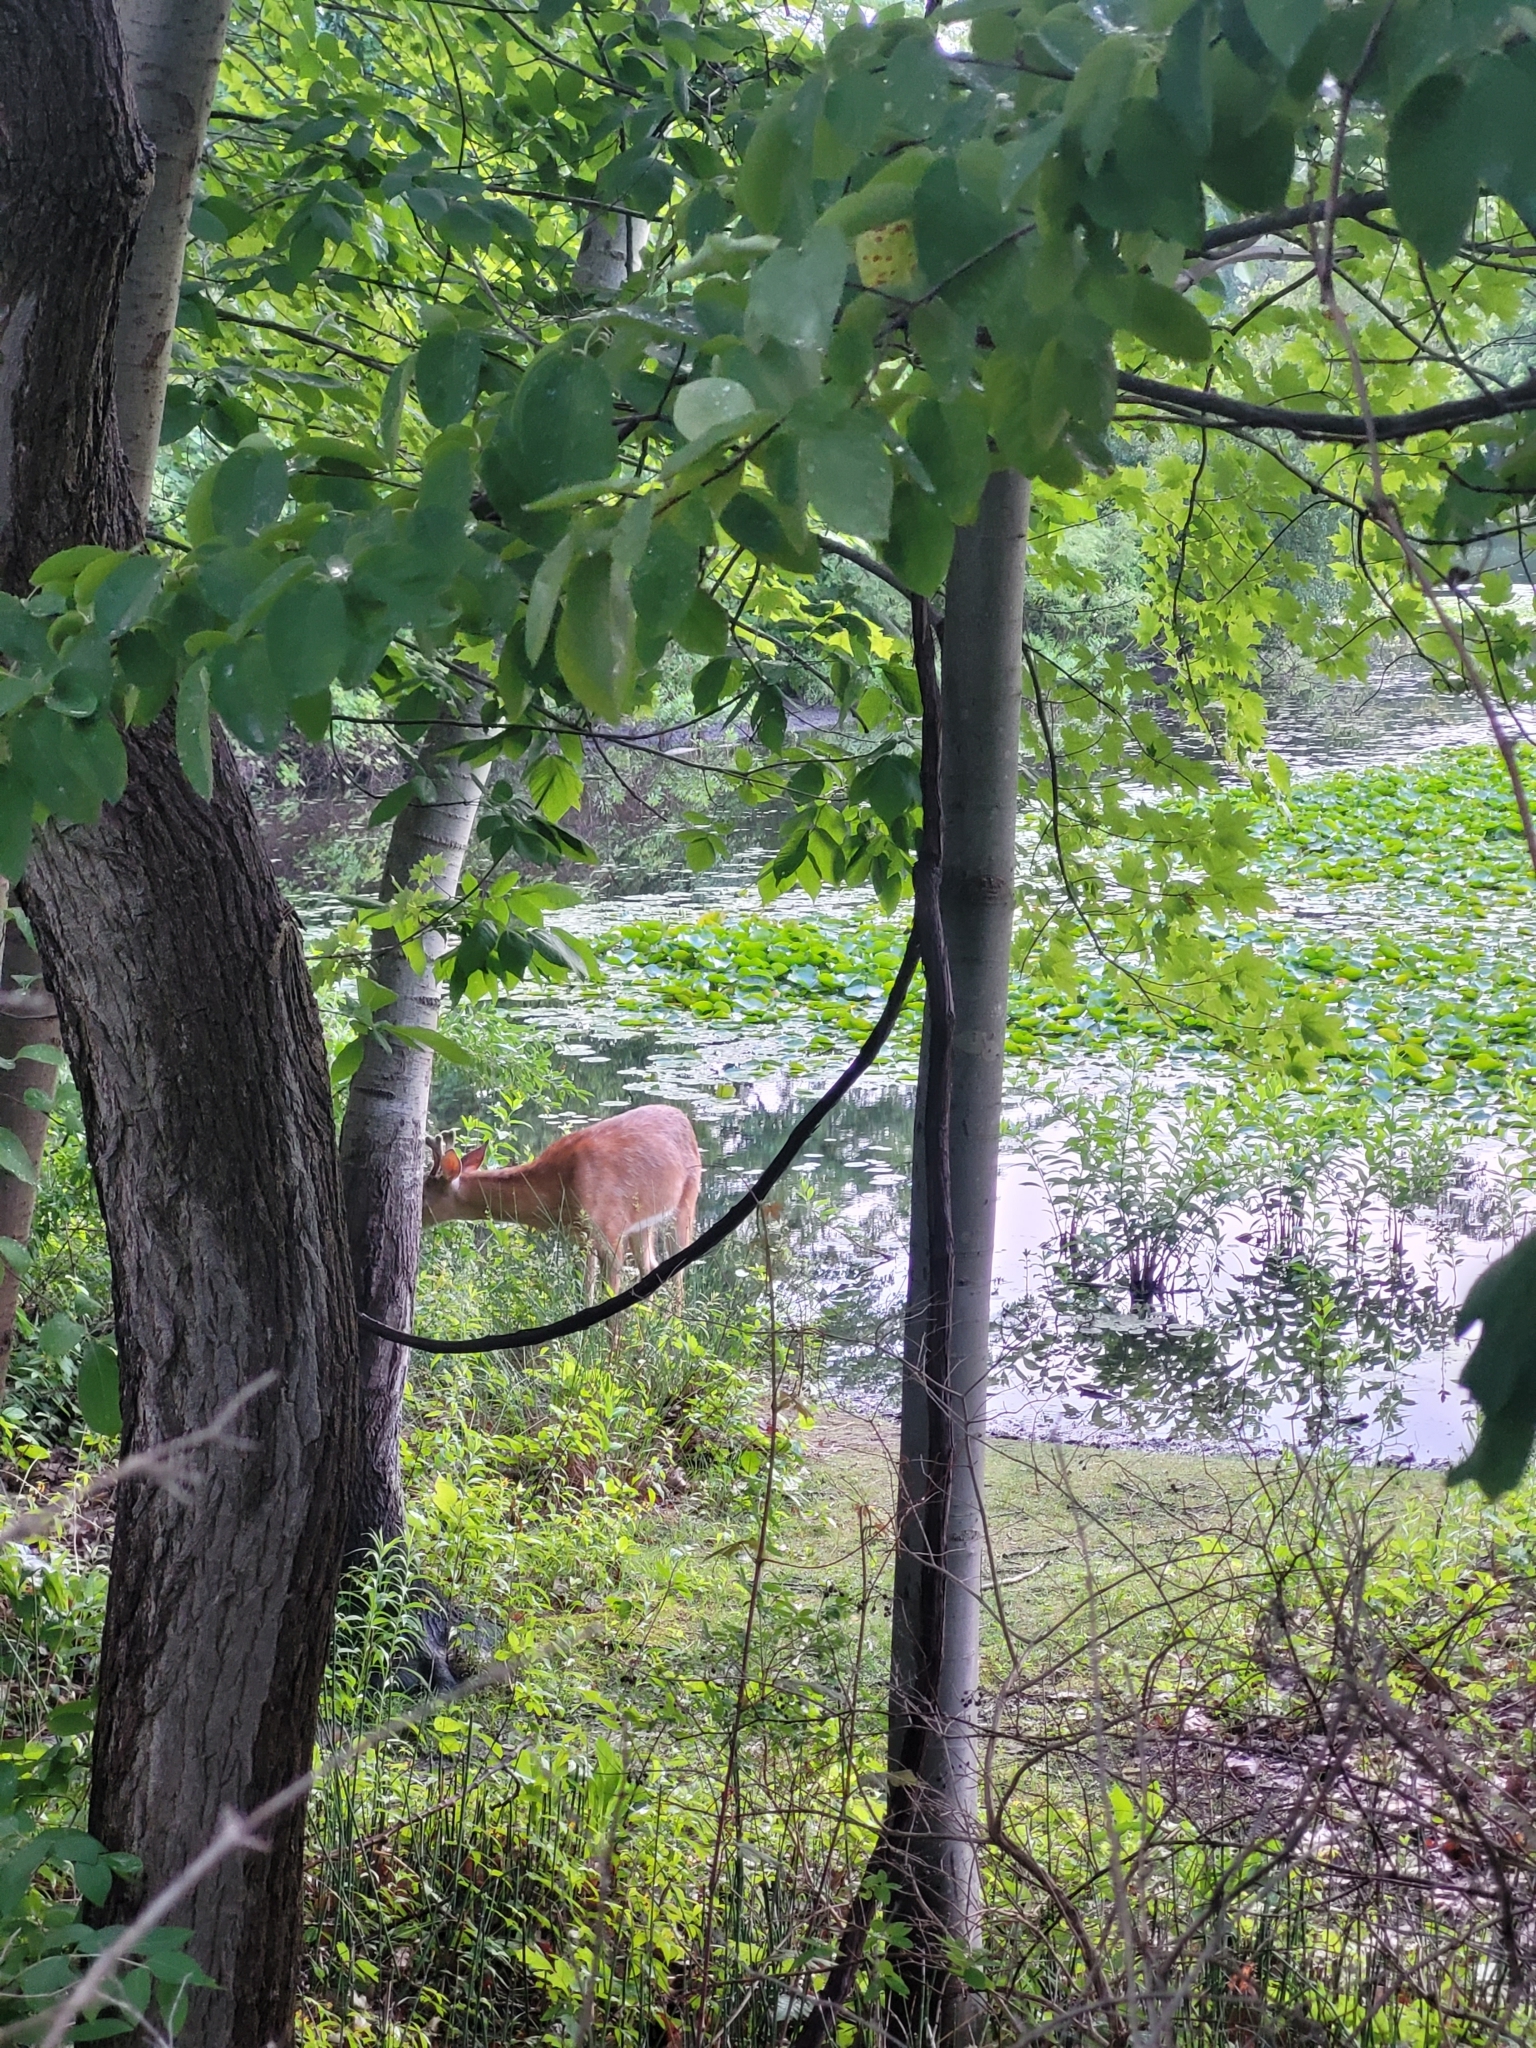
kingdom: Animalia
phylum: Chordata
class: Mammalia
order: Artiodactyla
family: Cervidae
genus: Odocoileus
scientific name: Odocoileus virginianus
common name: White-tailed deer
